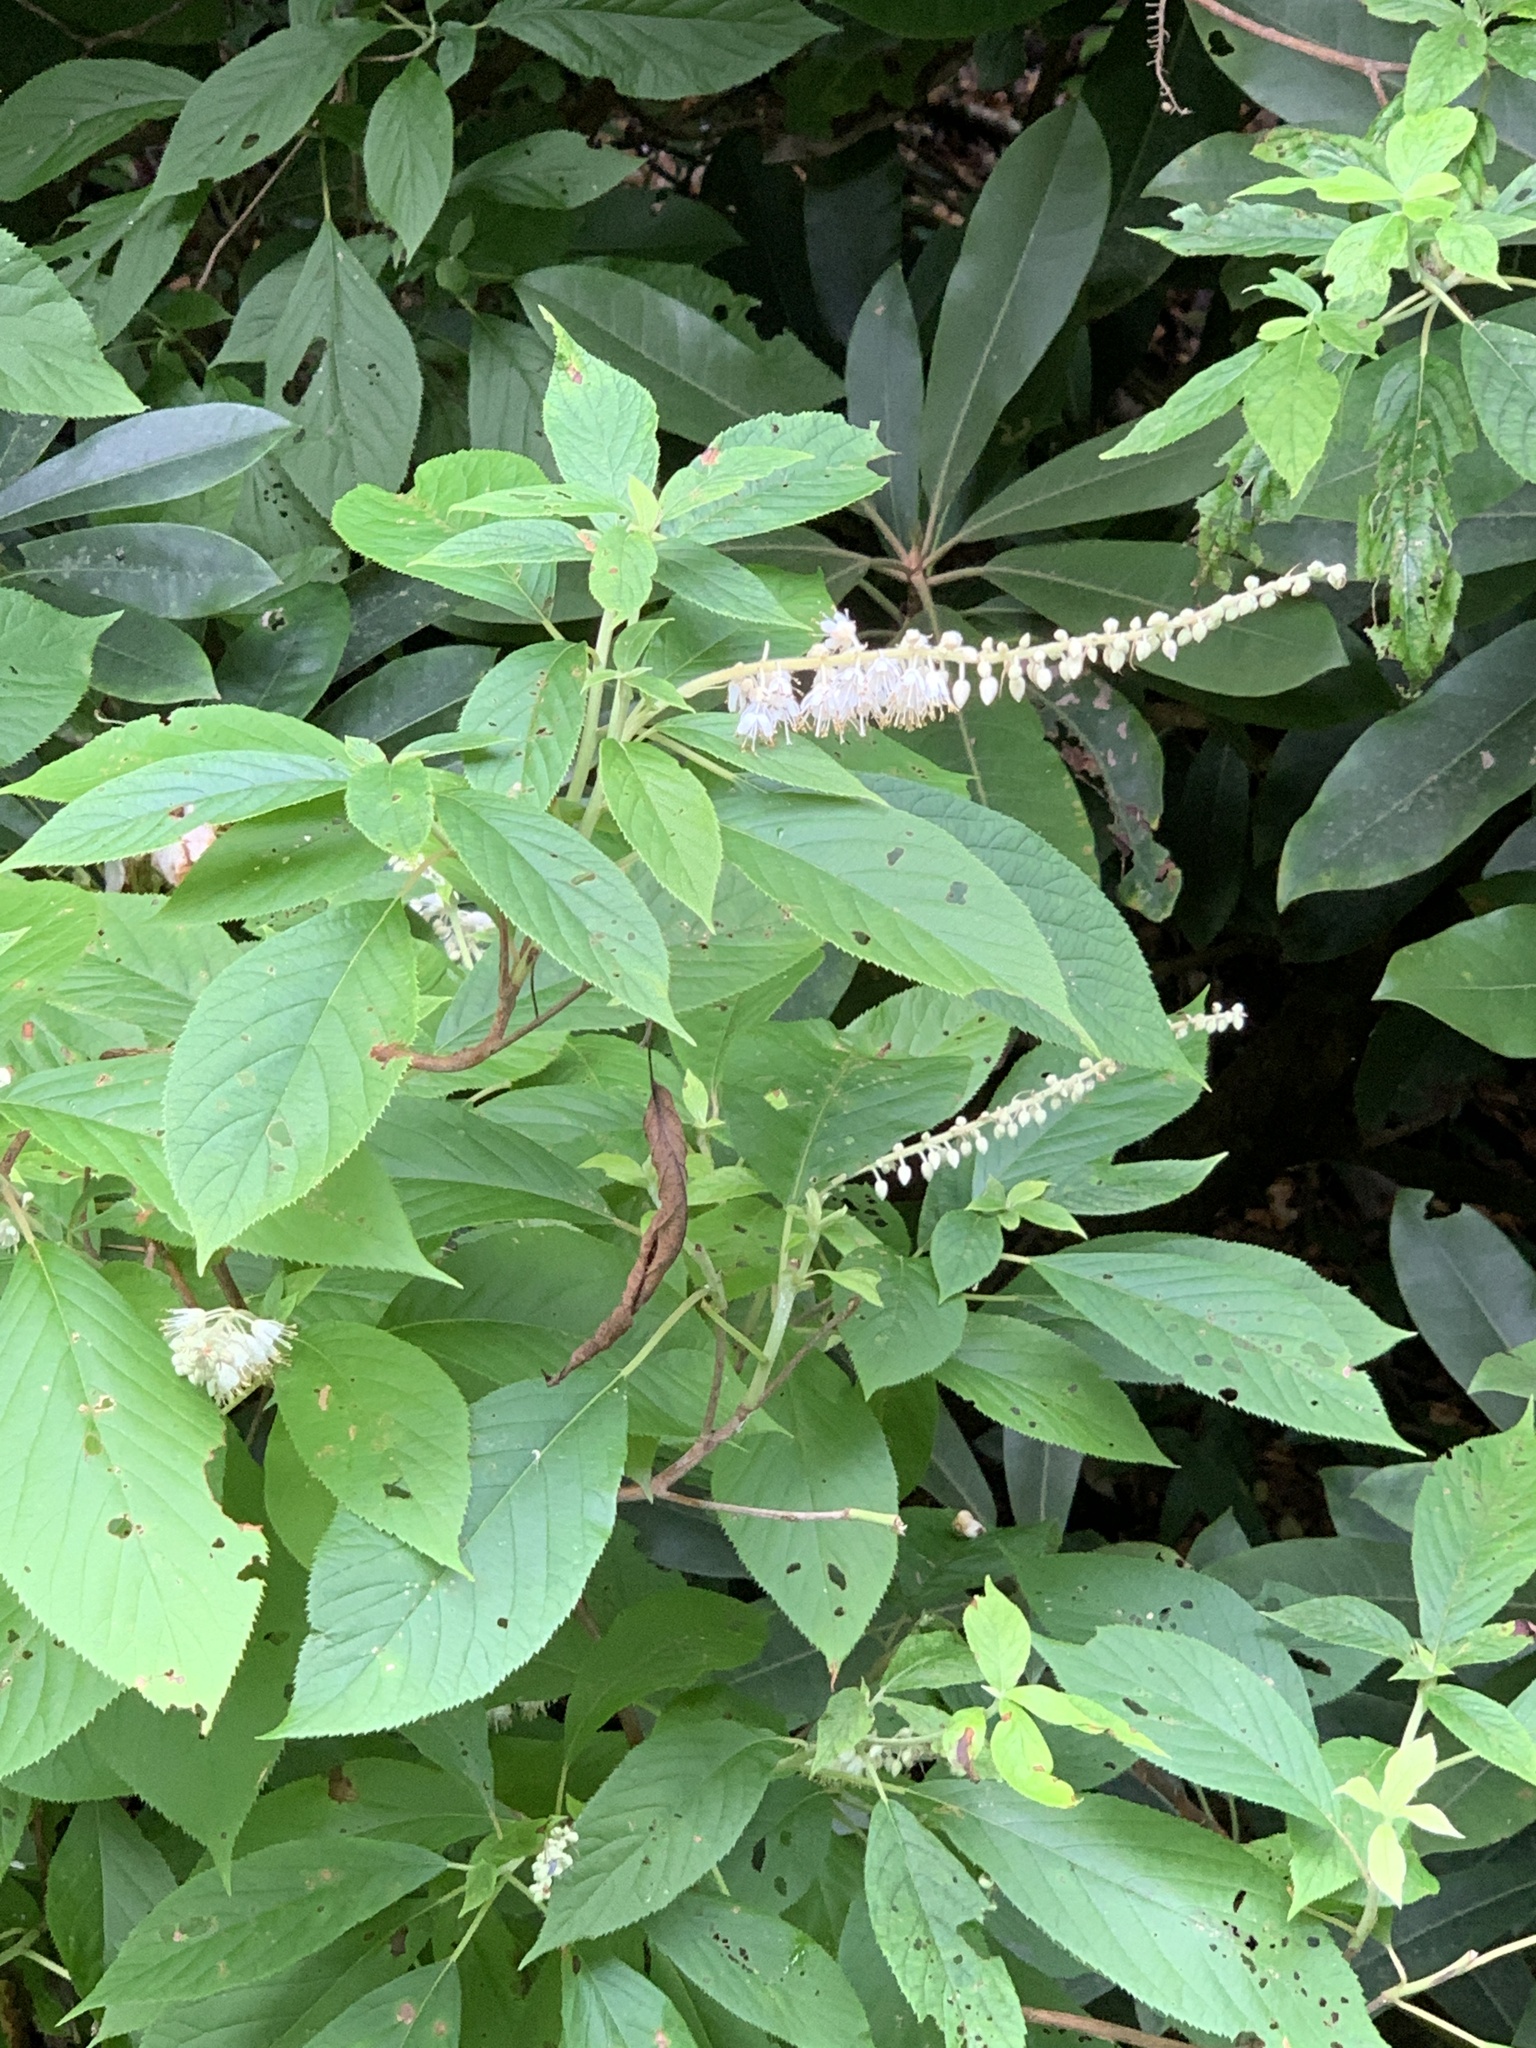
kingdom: Plantae
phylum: Tracheophyta
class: Magnoliopsida
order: Ericales
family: Clethraceae
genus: Clethra
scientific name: Clethra acuminata
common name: Mountain sweet pepperbush
